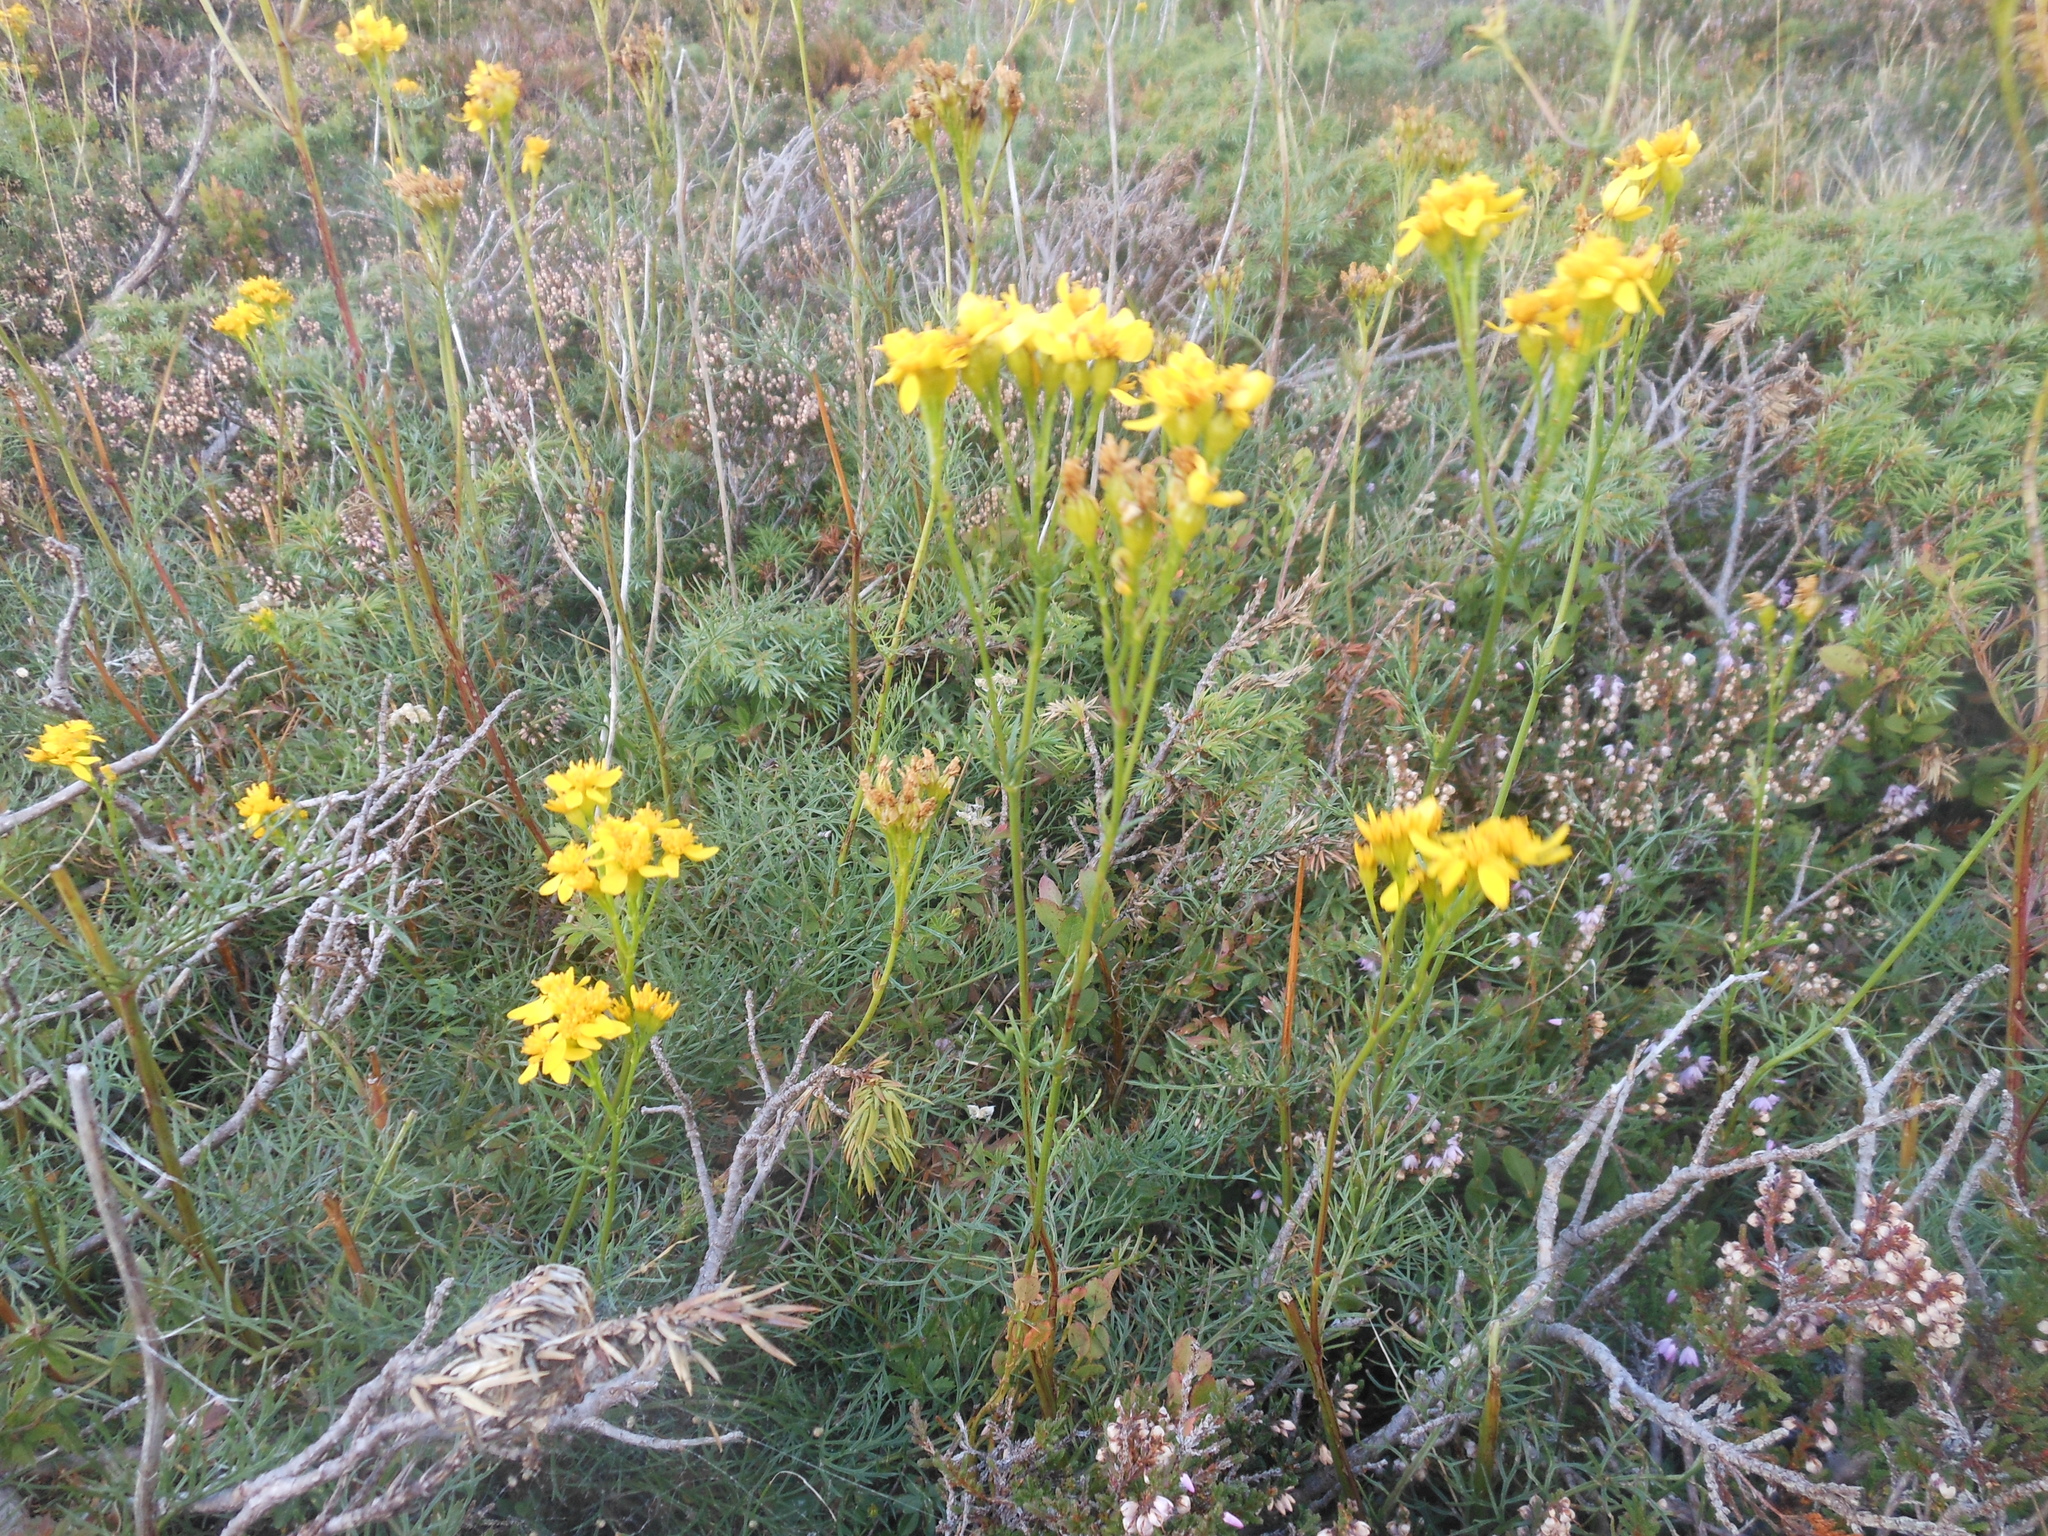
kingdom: Plantae
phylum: Tracheophyta
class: Magnoliopsida
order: Asterales
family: Asteraceae
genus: Jacobaea
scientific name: Jacobaea adonidifolia
